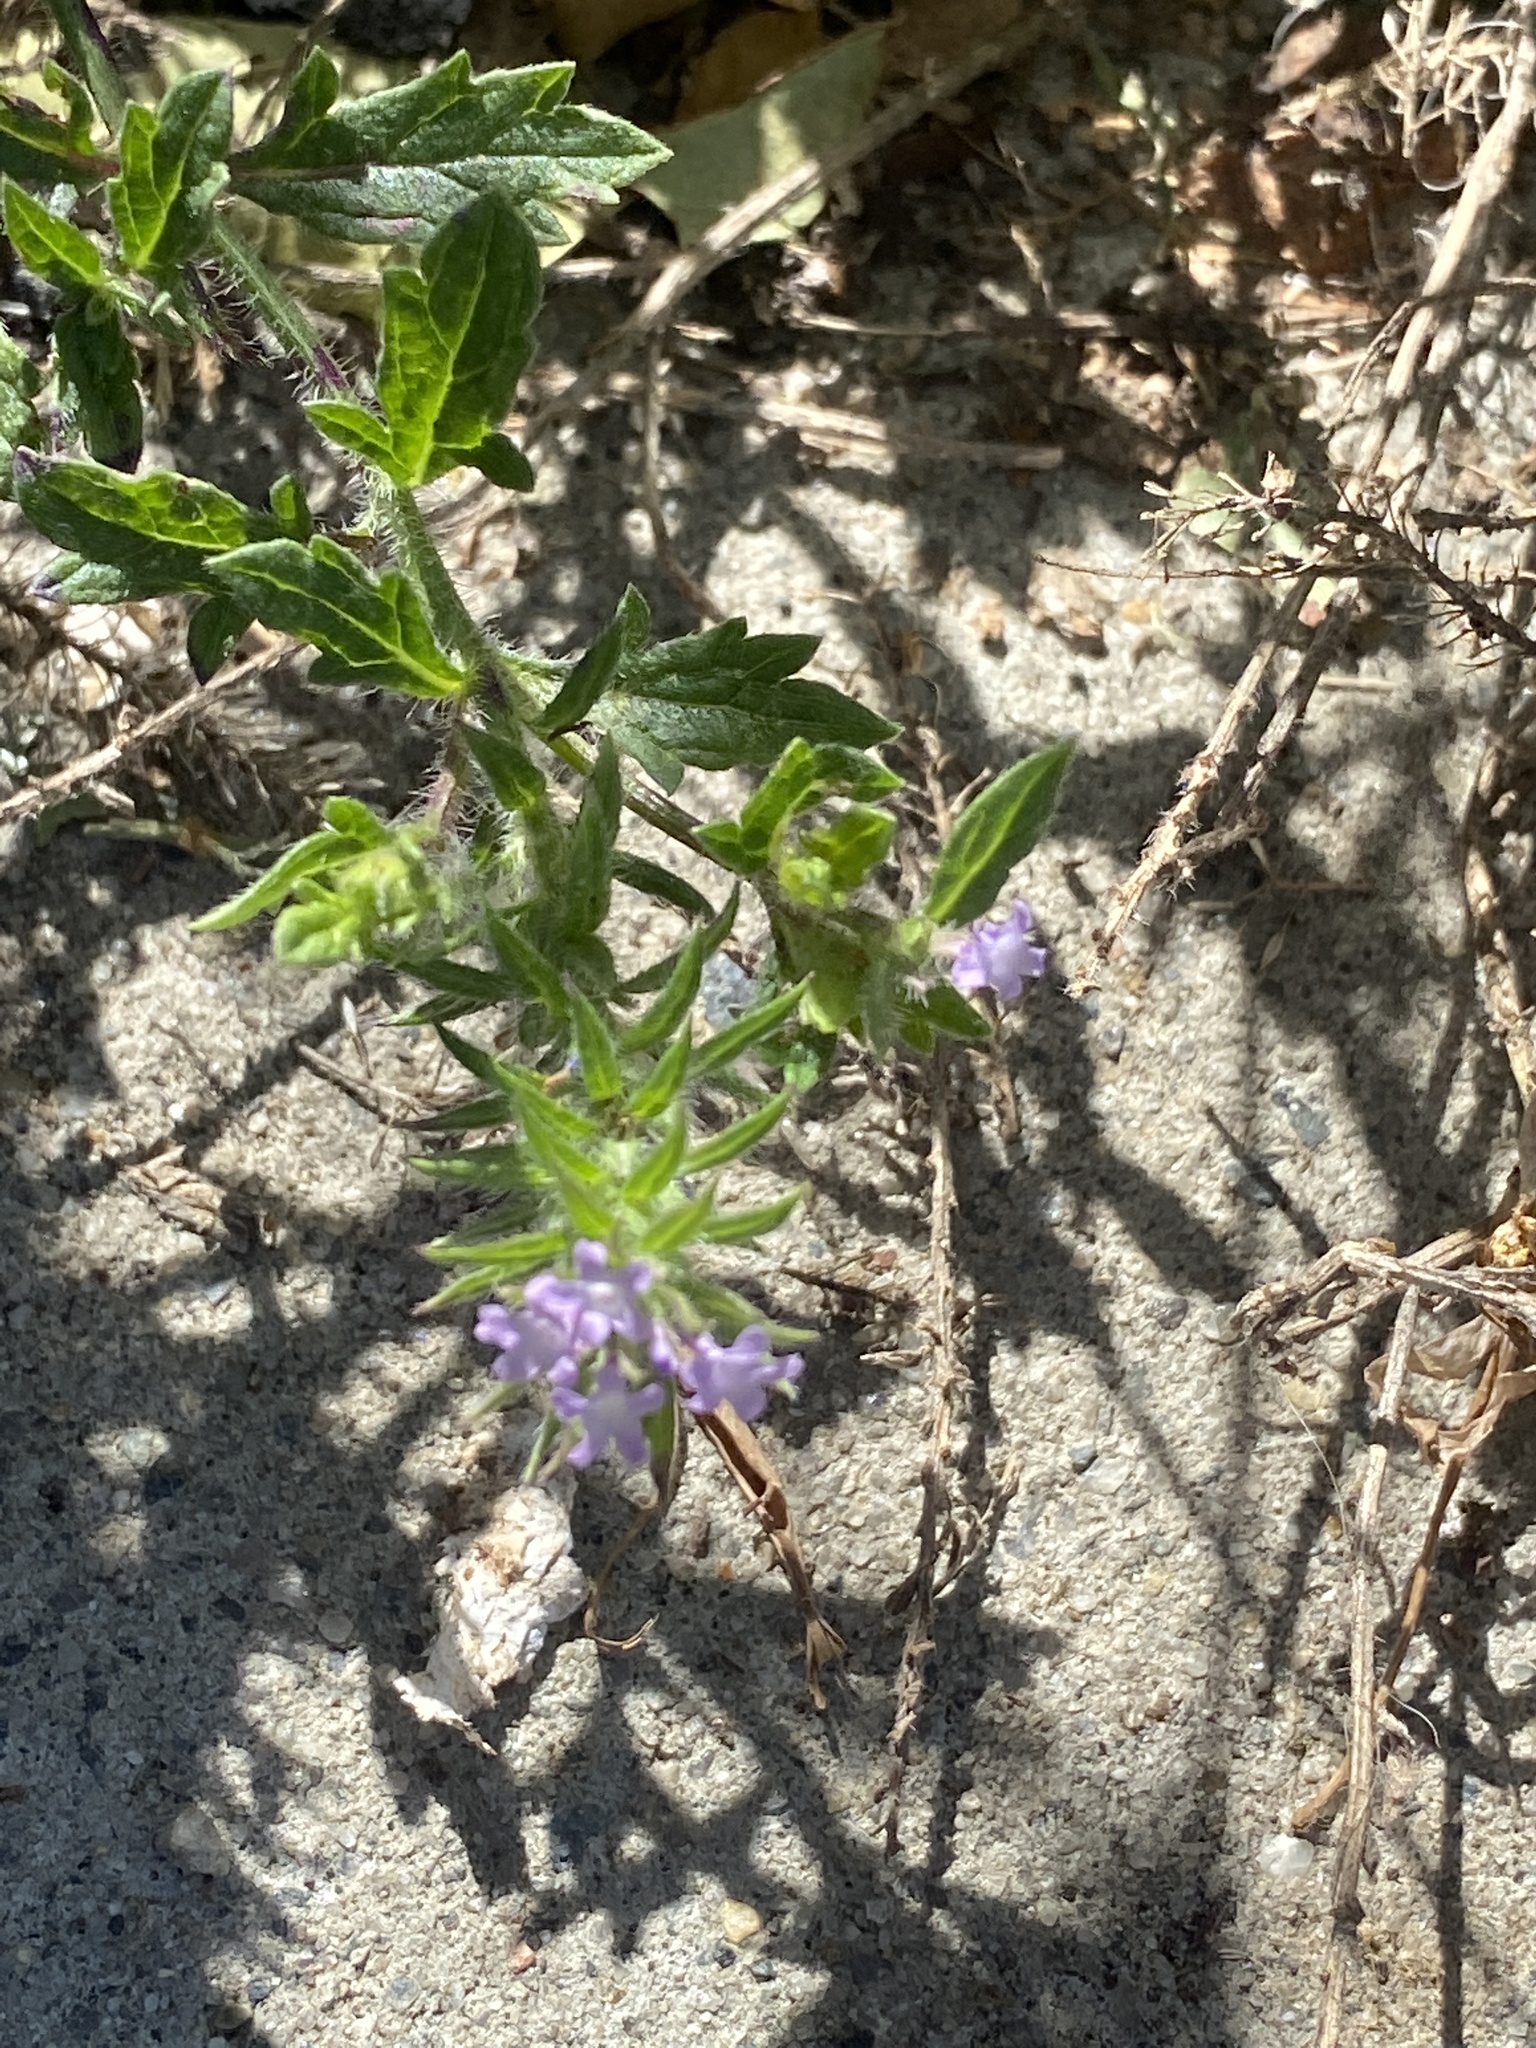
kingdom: Plantae
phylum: Tracheophyta
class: Magnoliopsida
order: Lamiales
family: Verbenaceae
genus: Verbena
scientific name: Verbena bracteata
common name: Bracted vervain
